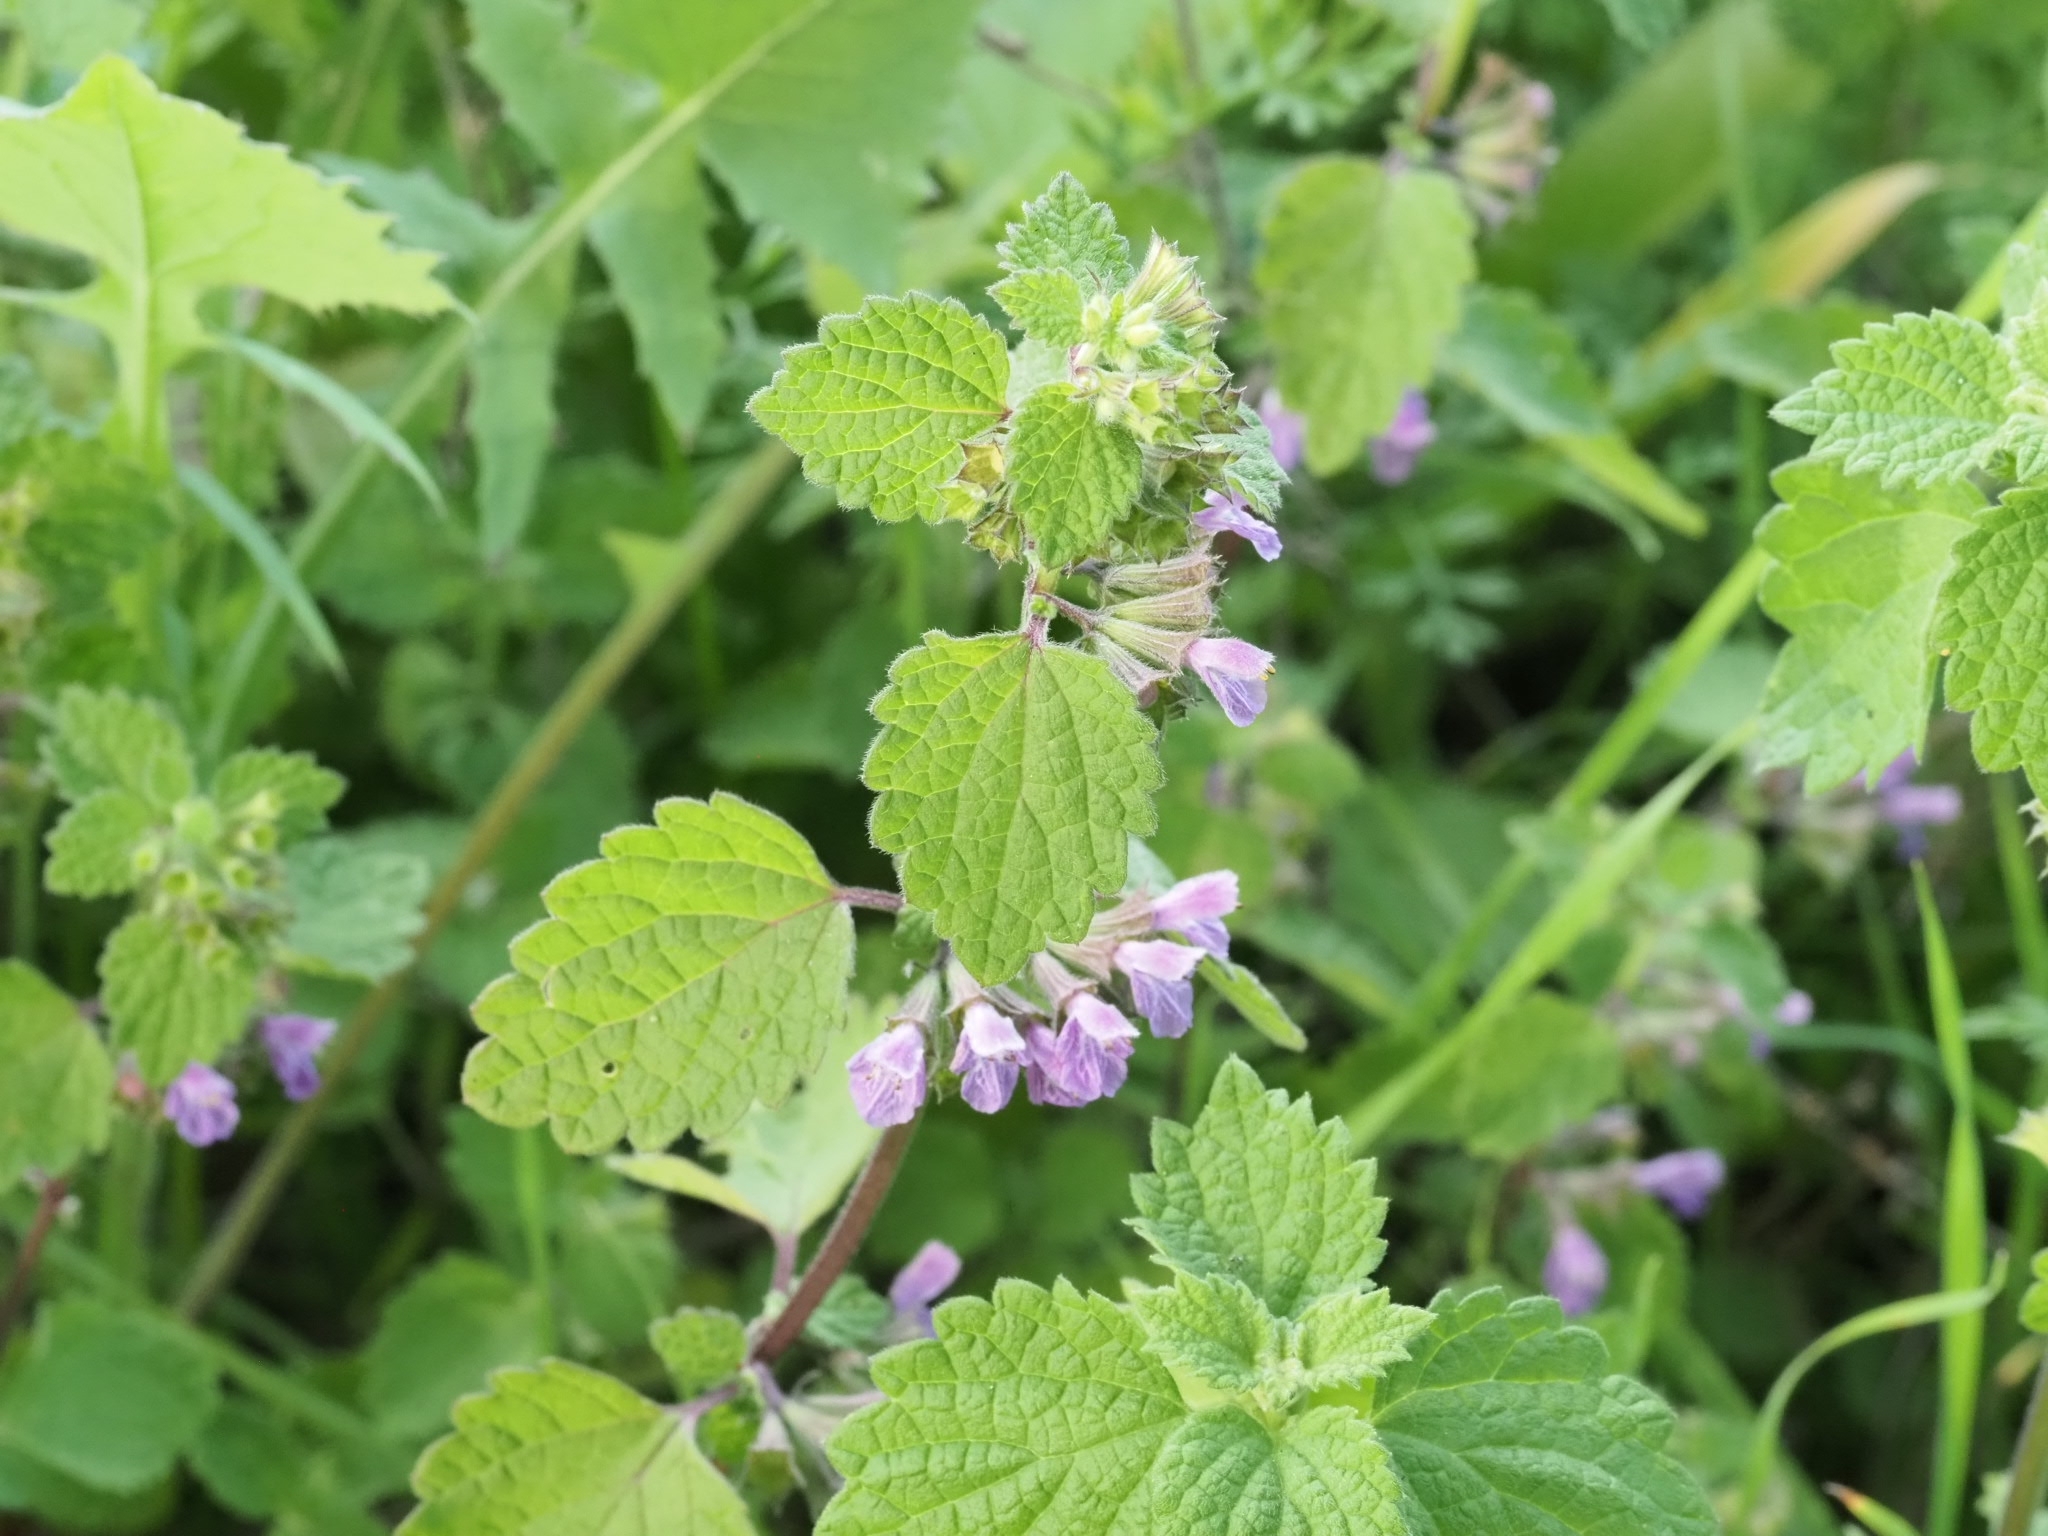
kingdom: Plantae
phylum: Tracheophyta
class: Magnoliopsida
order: Lamiales
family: Lamiaceae
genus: Ballota
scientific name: Ballota nigra
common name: Black horehound
